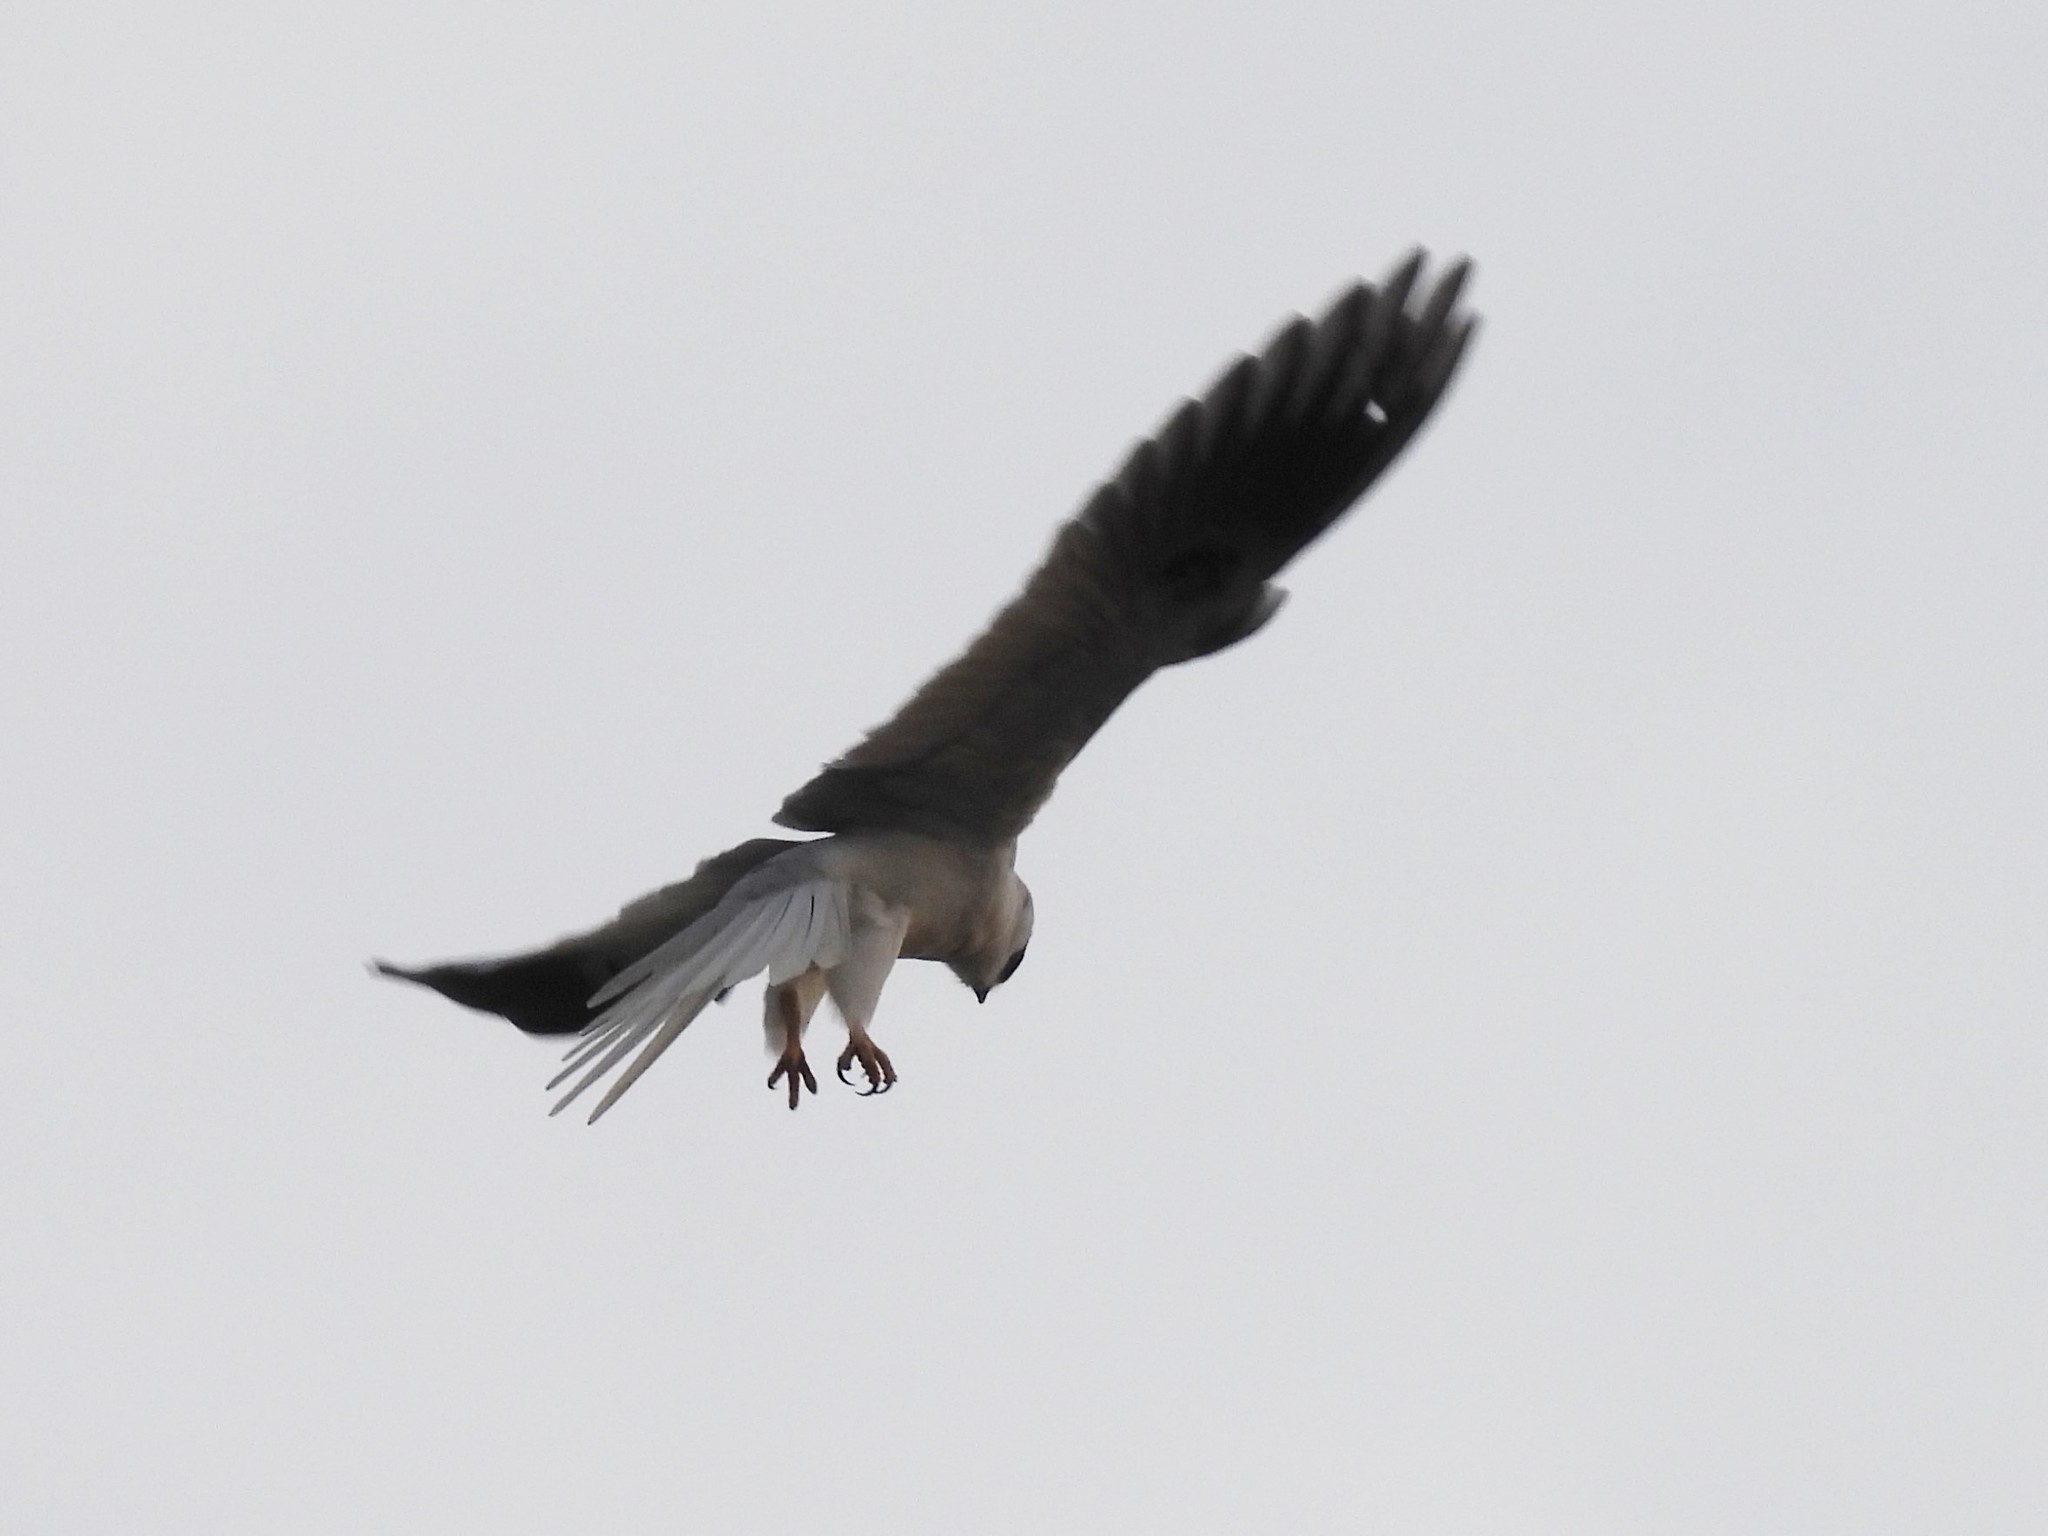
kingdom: Animalia
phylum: Chordata
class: Aves
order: Accipitriformes
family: Accipitridae
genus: Elanus
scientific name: Elanus leucurus
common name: White-tailed kite
